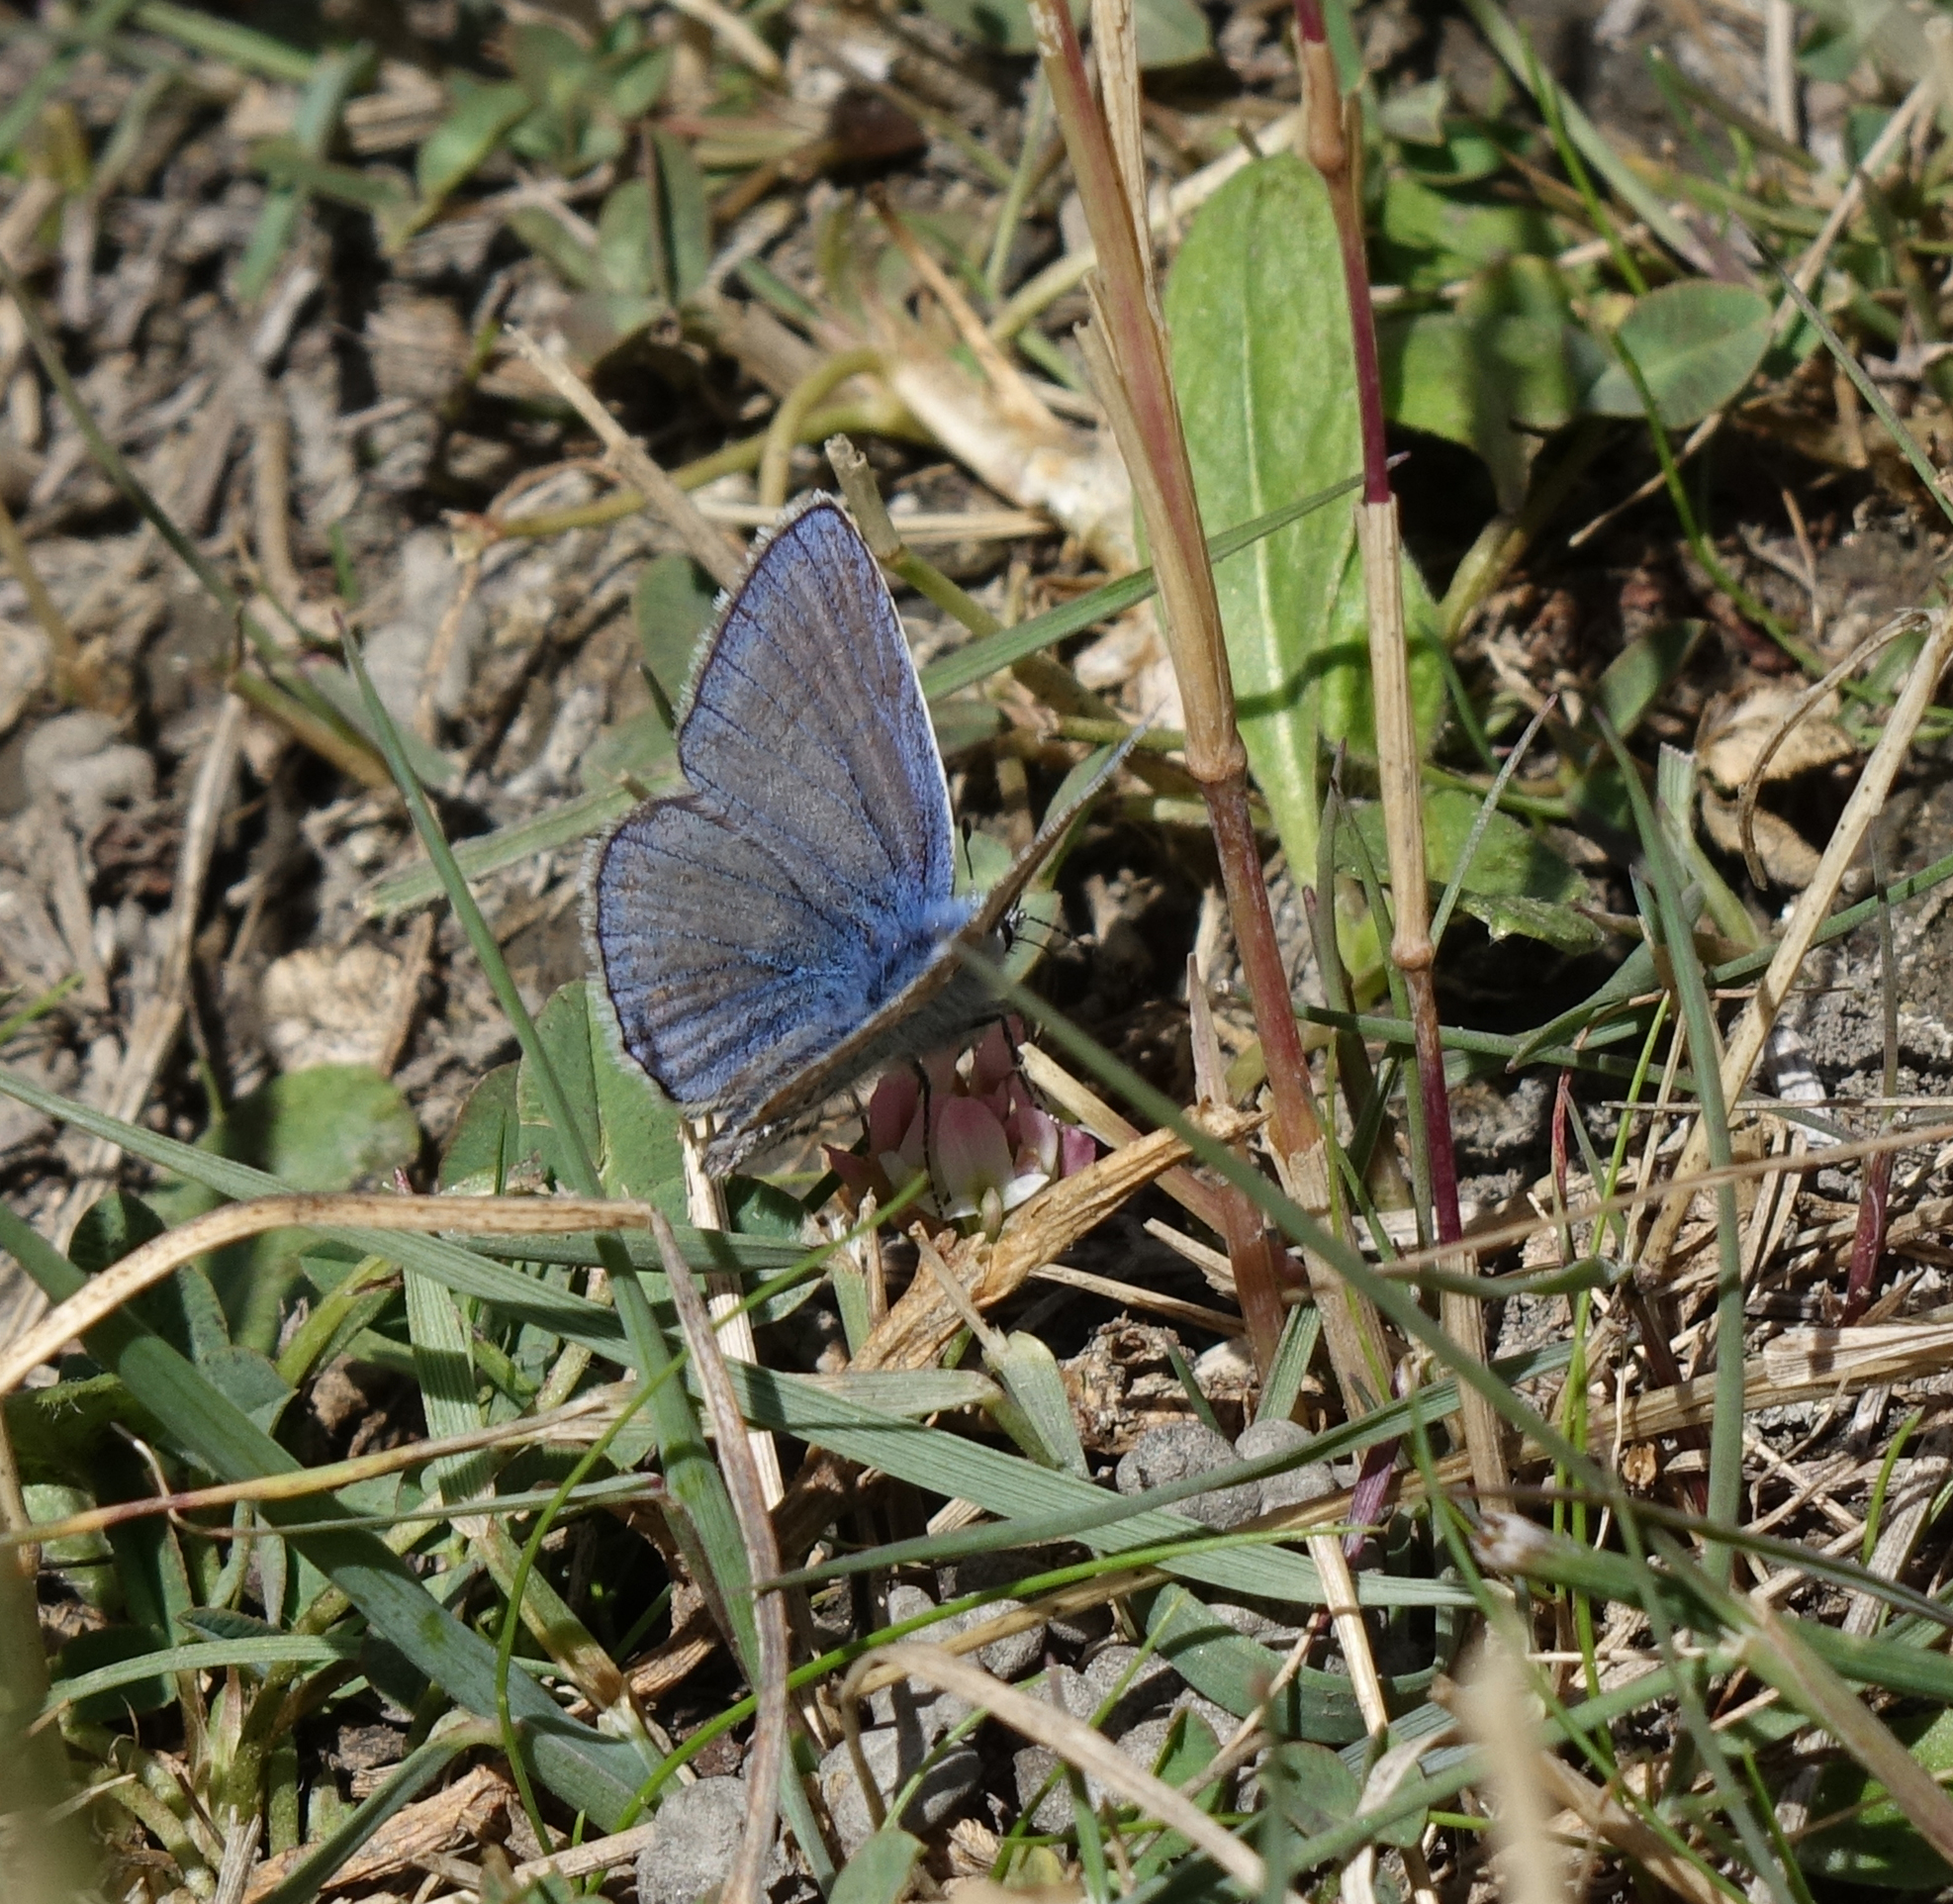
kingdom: Animalia
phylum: Arthropoda
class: Insecta
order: Lepidoptera
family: Lycaenidae
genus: Polyommatus
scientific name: Polyommatus icarus
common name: Common blue
